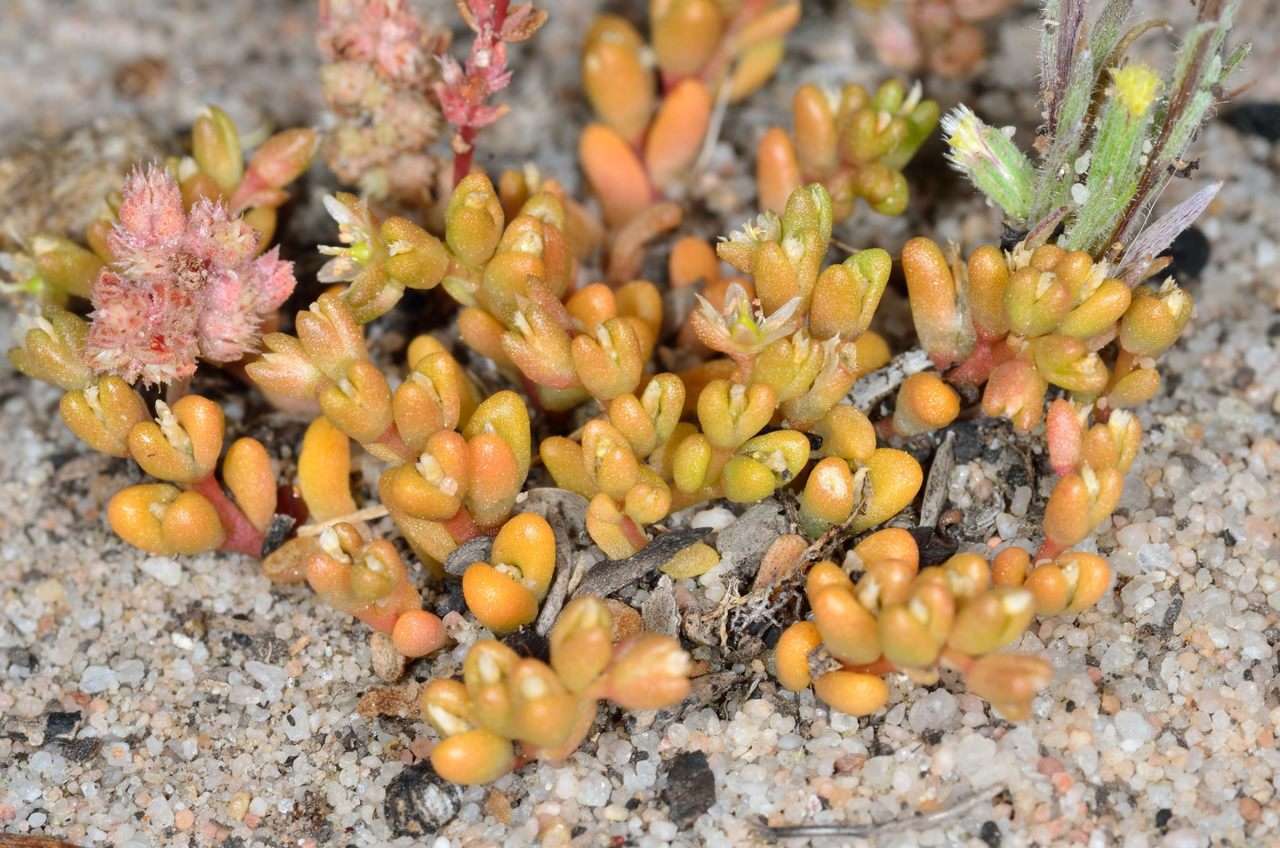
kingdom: Plantae
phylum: Tracheophyta
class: Magnoliopsida
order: Caryophyllales
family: Montiaceae
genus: Rumicastrum
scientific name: Rumicastrum granuliferum
